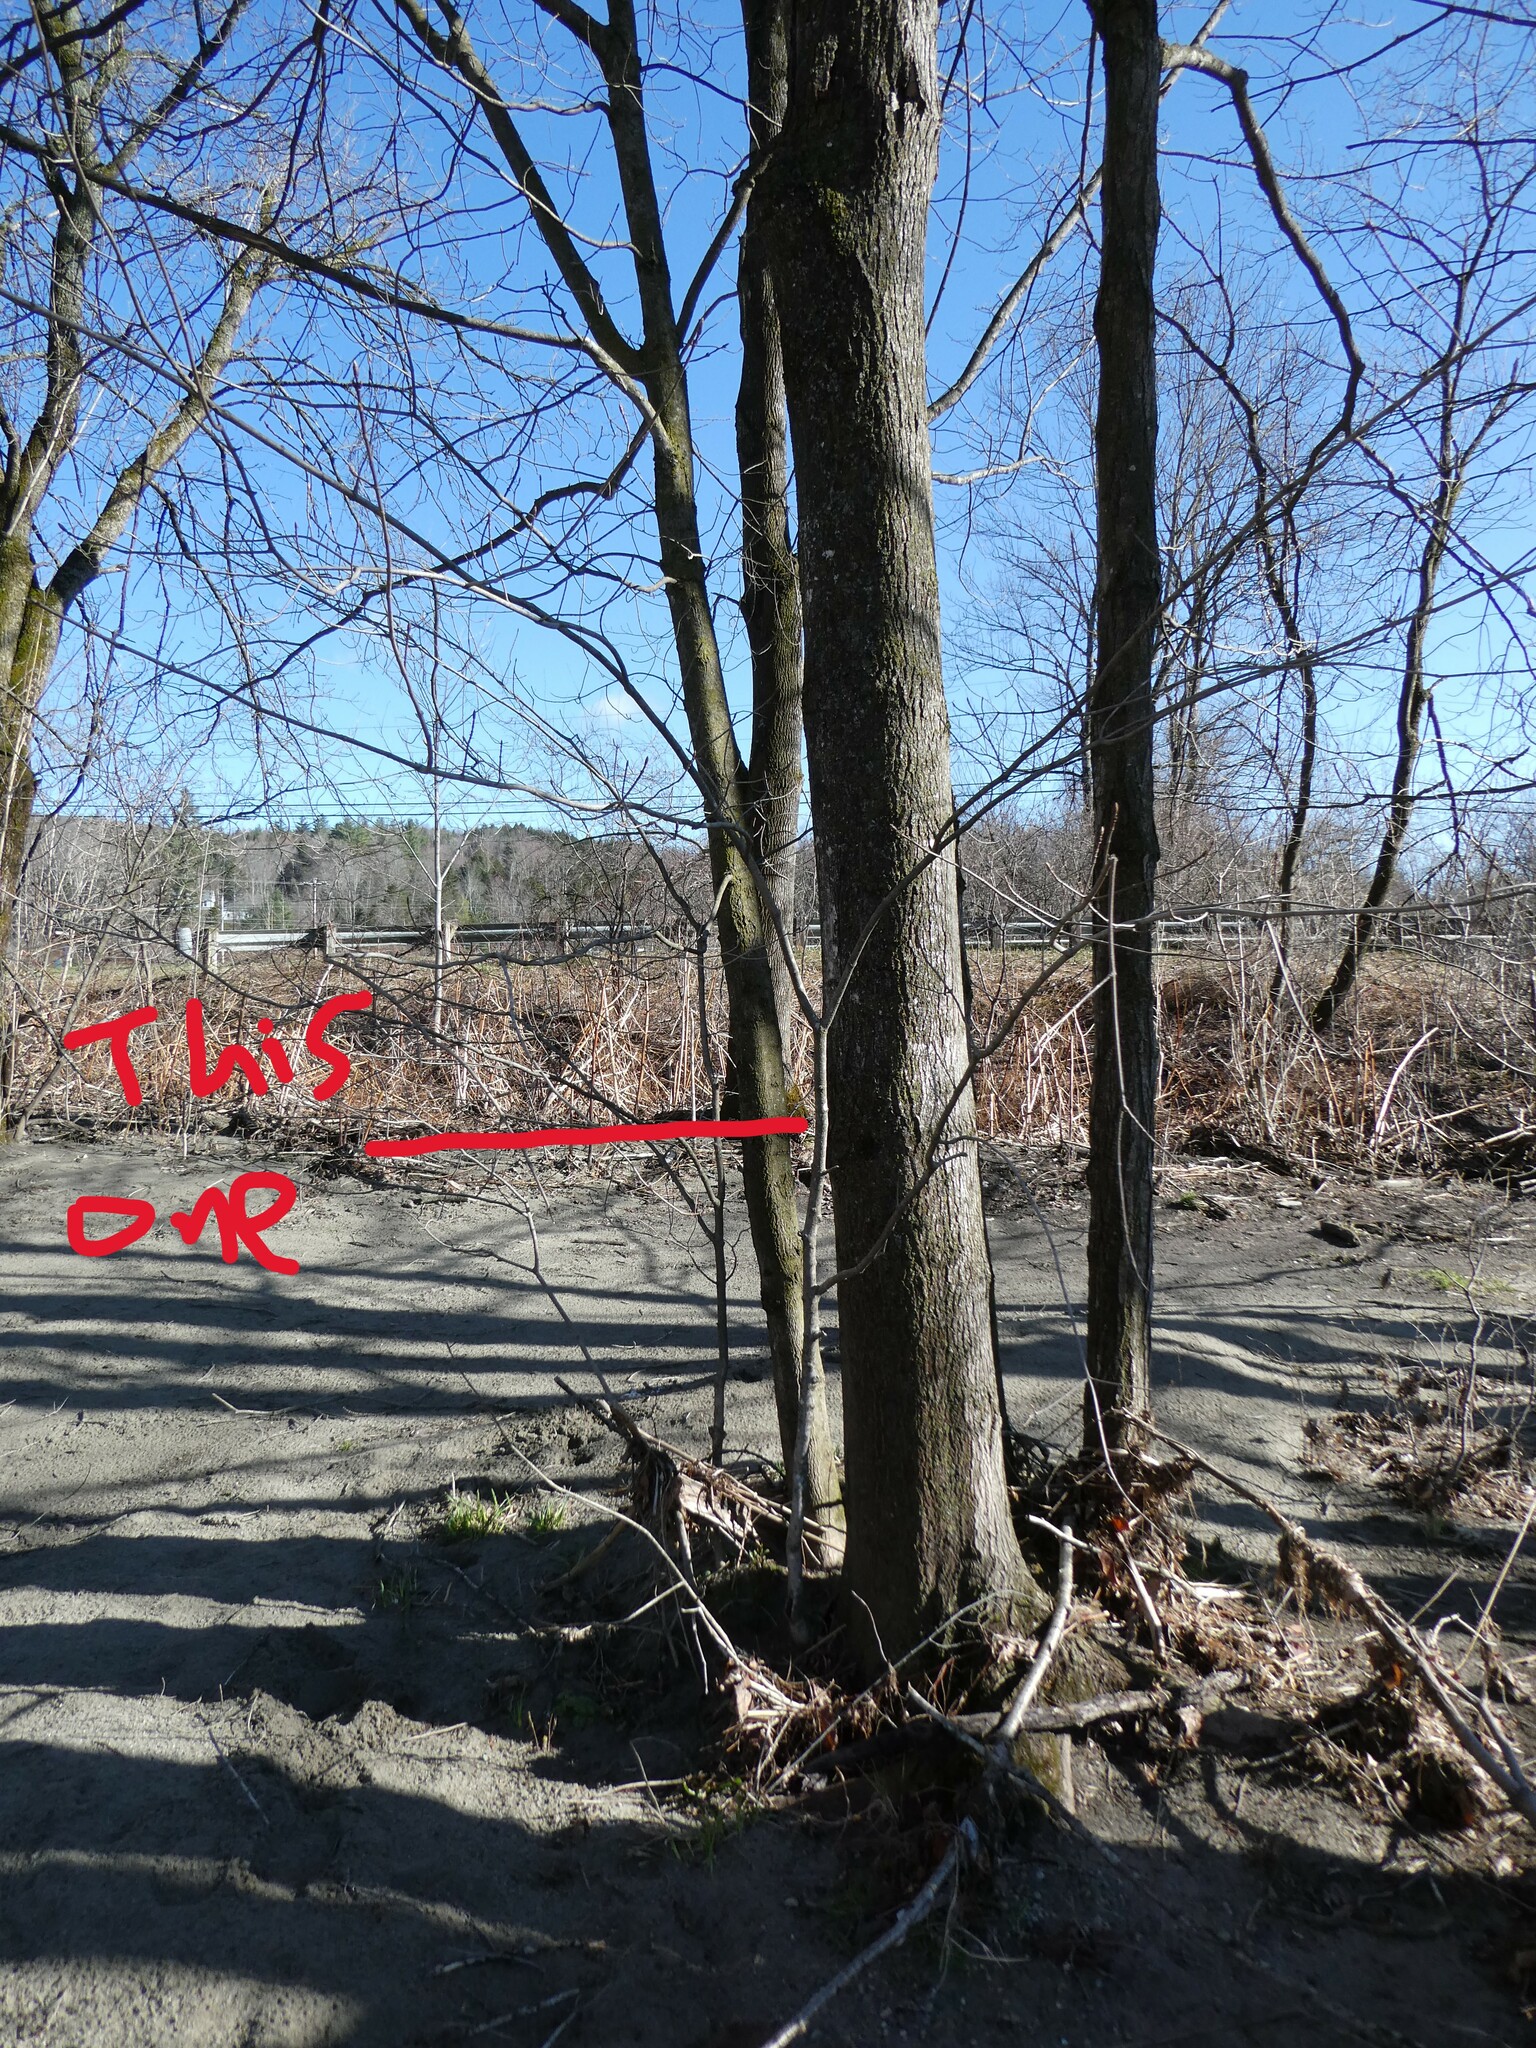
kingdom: Plantae
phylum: Tracheophyta
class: Magnoliopsida
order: Sapindales
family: Sapindaceae
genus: Acer
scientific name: Acer saccharum
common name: Sugar maple
